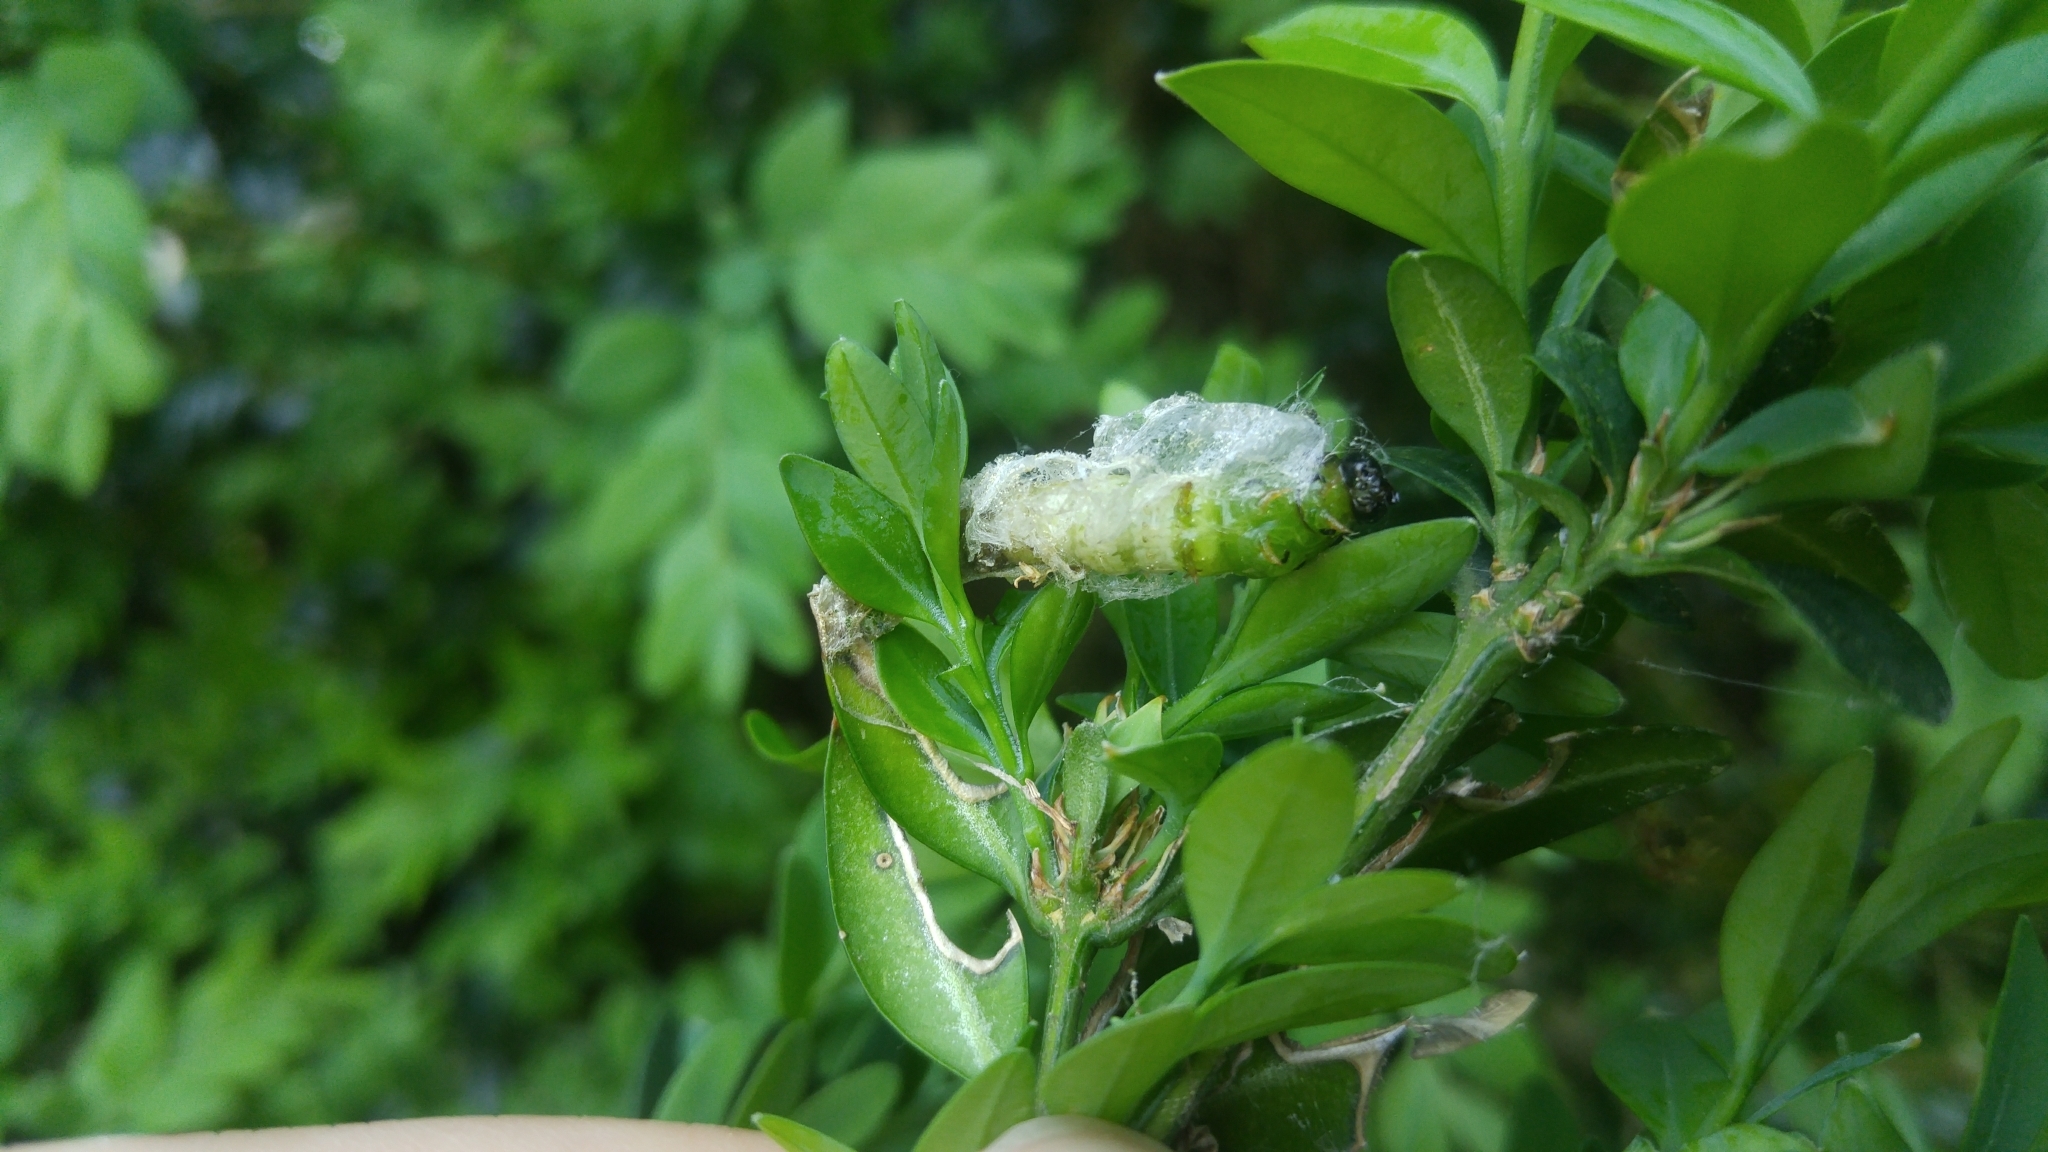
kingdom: Animalia
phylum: Arthropoda
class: Insecta
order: Lepidoptera
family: Crambidae
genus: Cydalima
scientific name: Cydalima perspectalis
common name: Box tree moth
